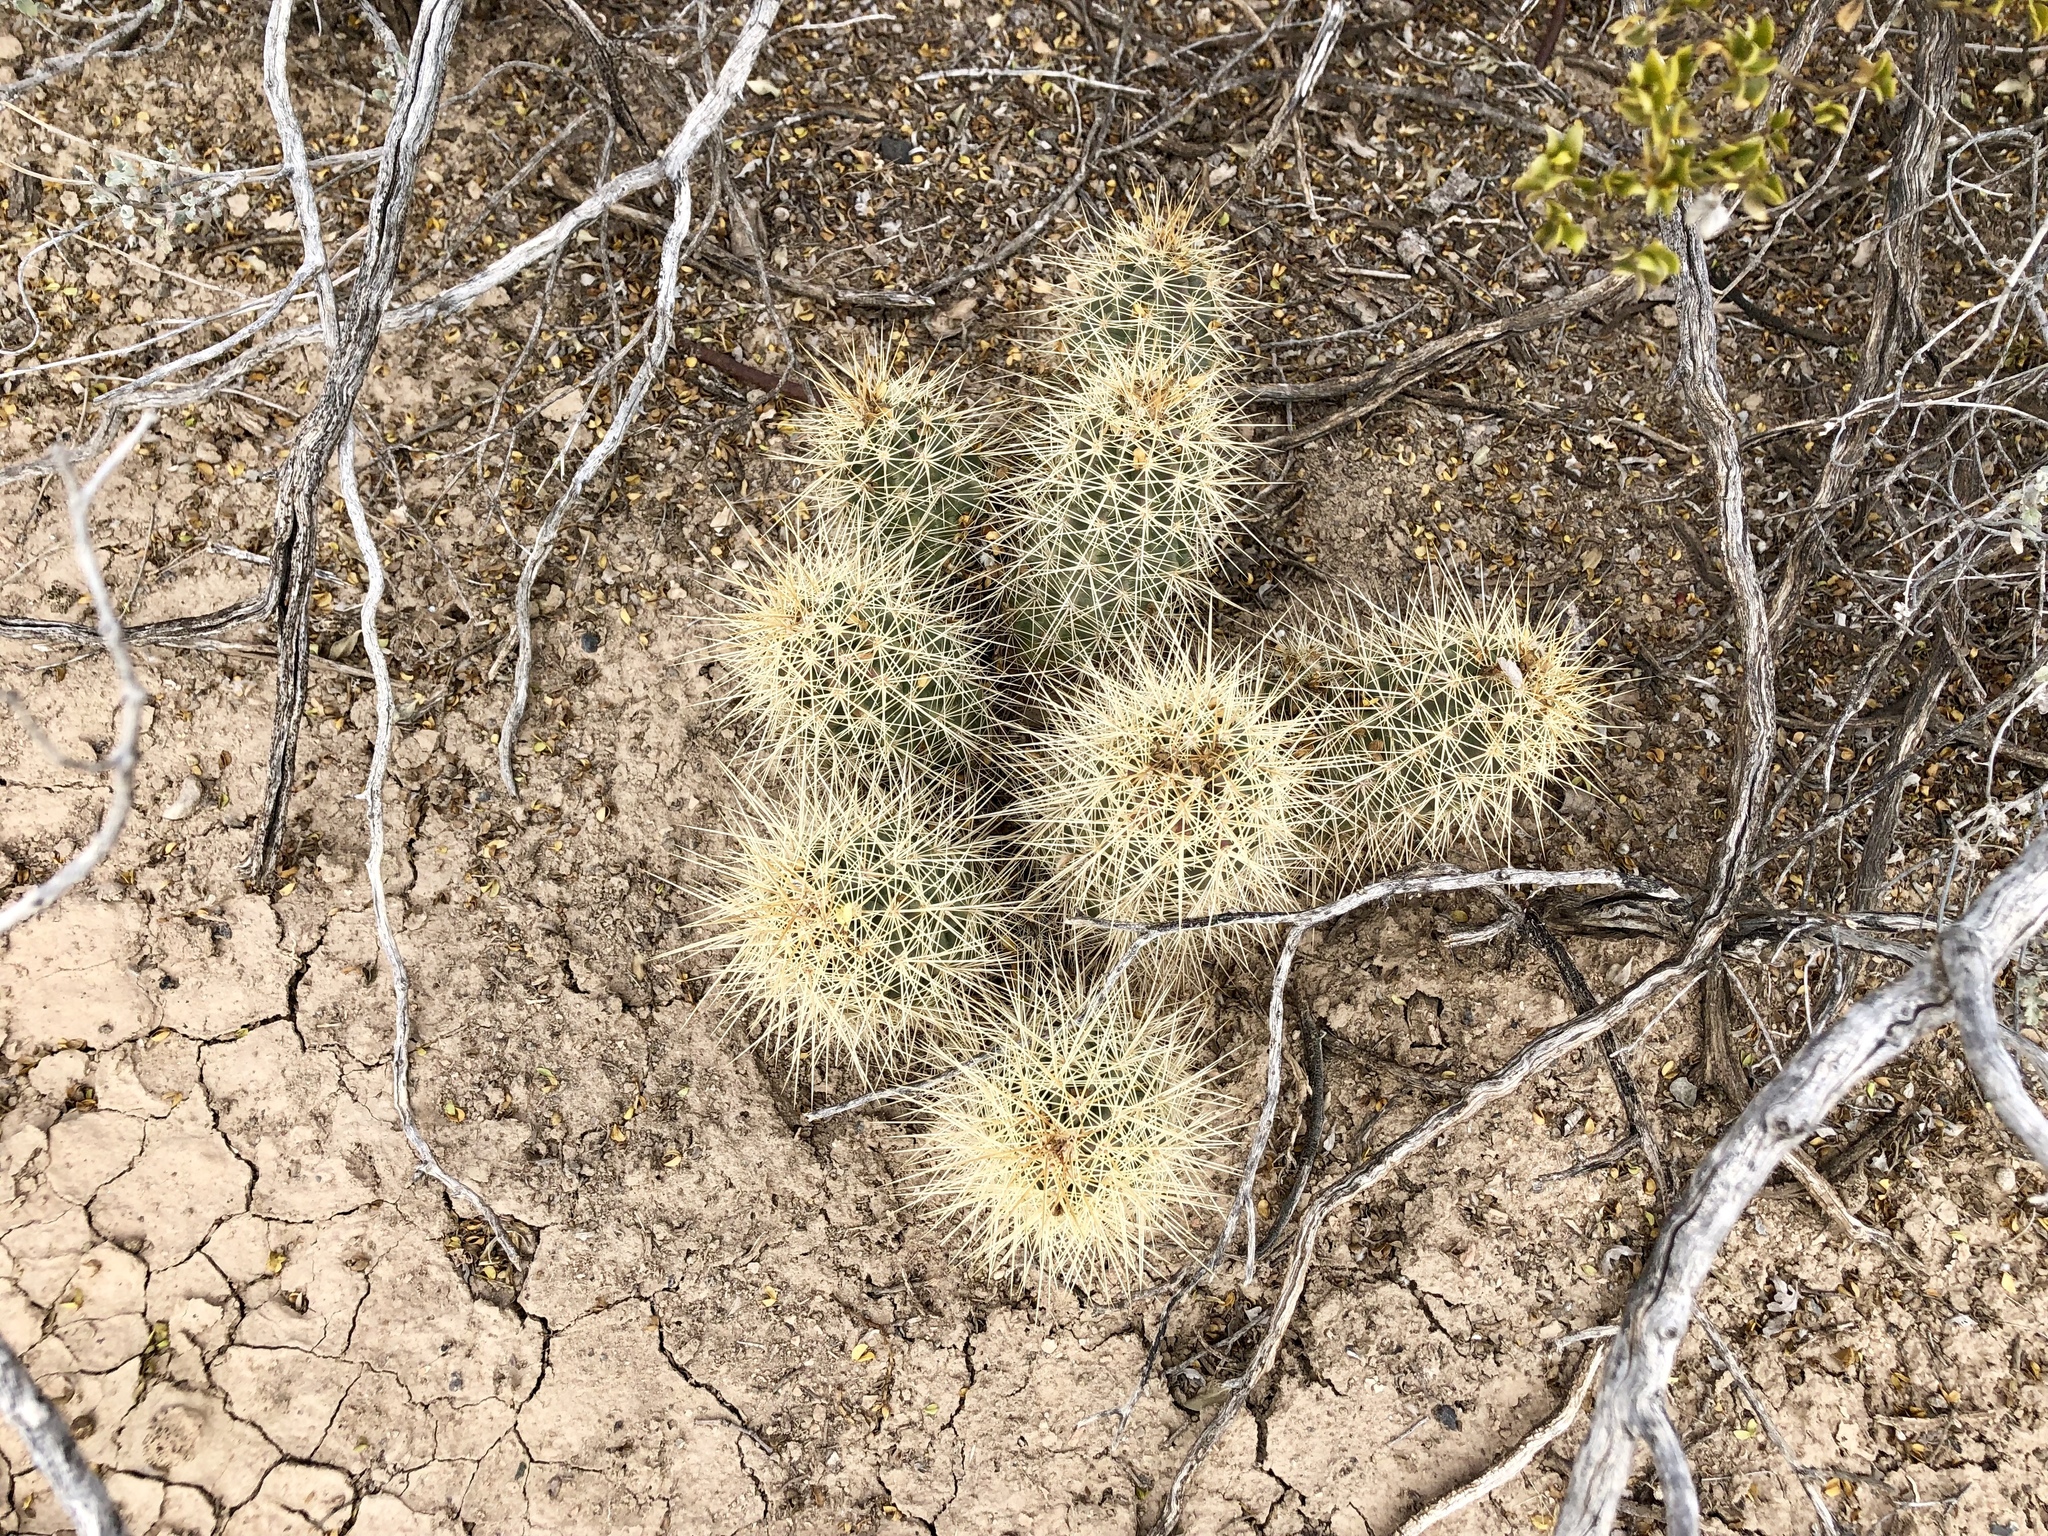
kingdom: Plantae
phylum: Tracheophyta
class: Magnoliopsida
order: Caryophyllales
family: Cactaceae
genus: Echinocereus
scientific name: Echinocereus coccineus
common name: Scarlet hedgehog cactus
